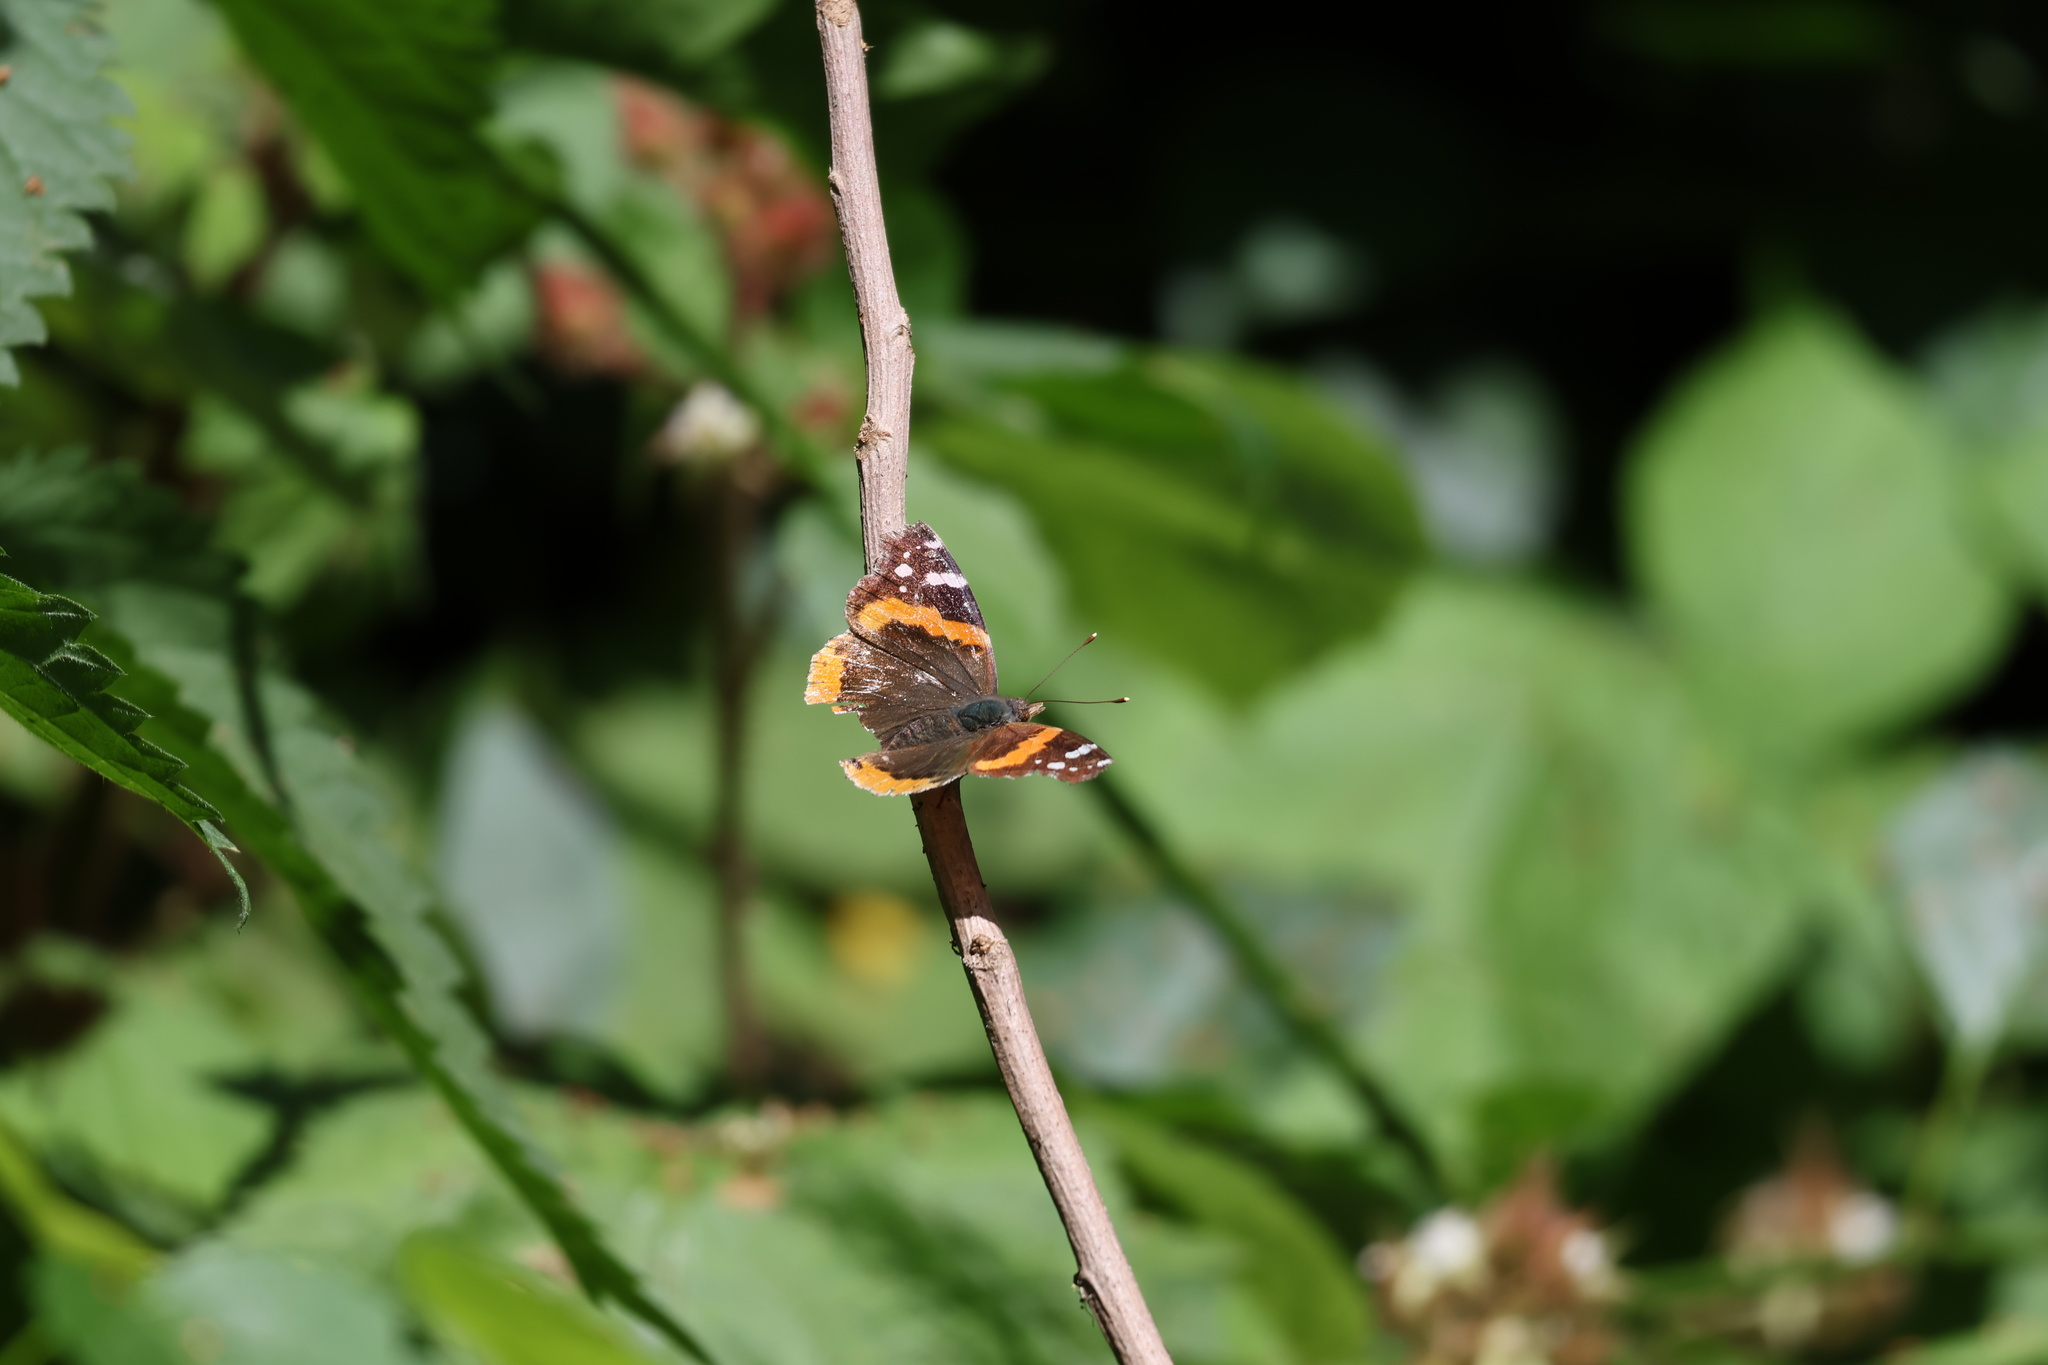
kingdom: Animalia
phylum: Arthropoda
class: Insecta
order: Lepidoptera
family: Nymphalidae
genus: Vanessa
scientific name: Vanessa atalanta
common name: Red admiral
